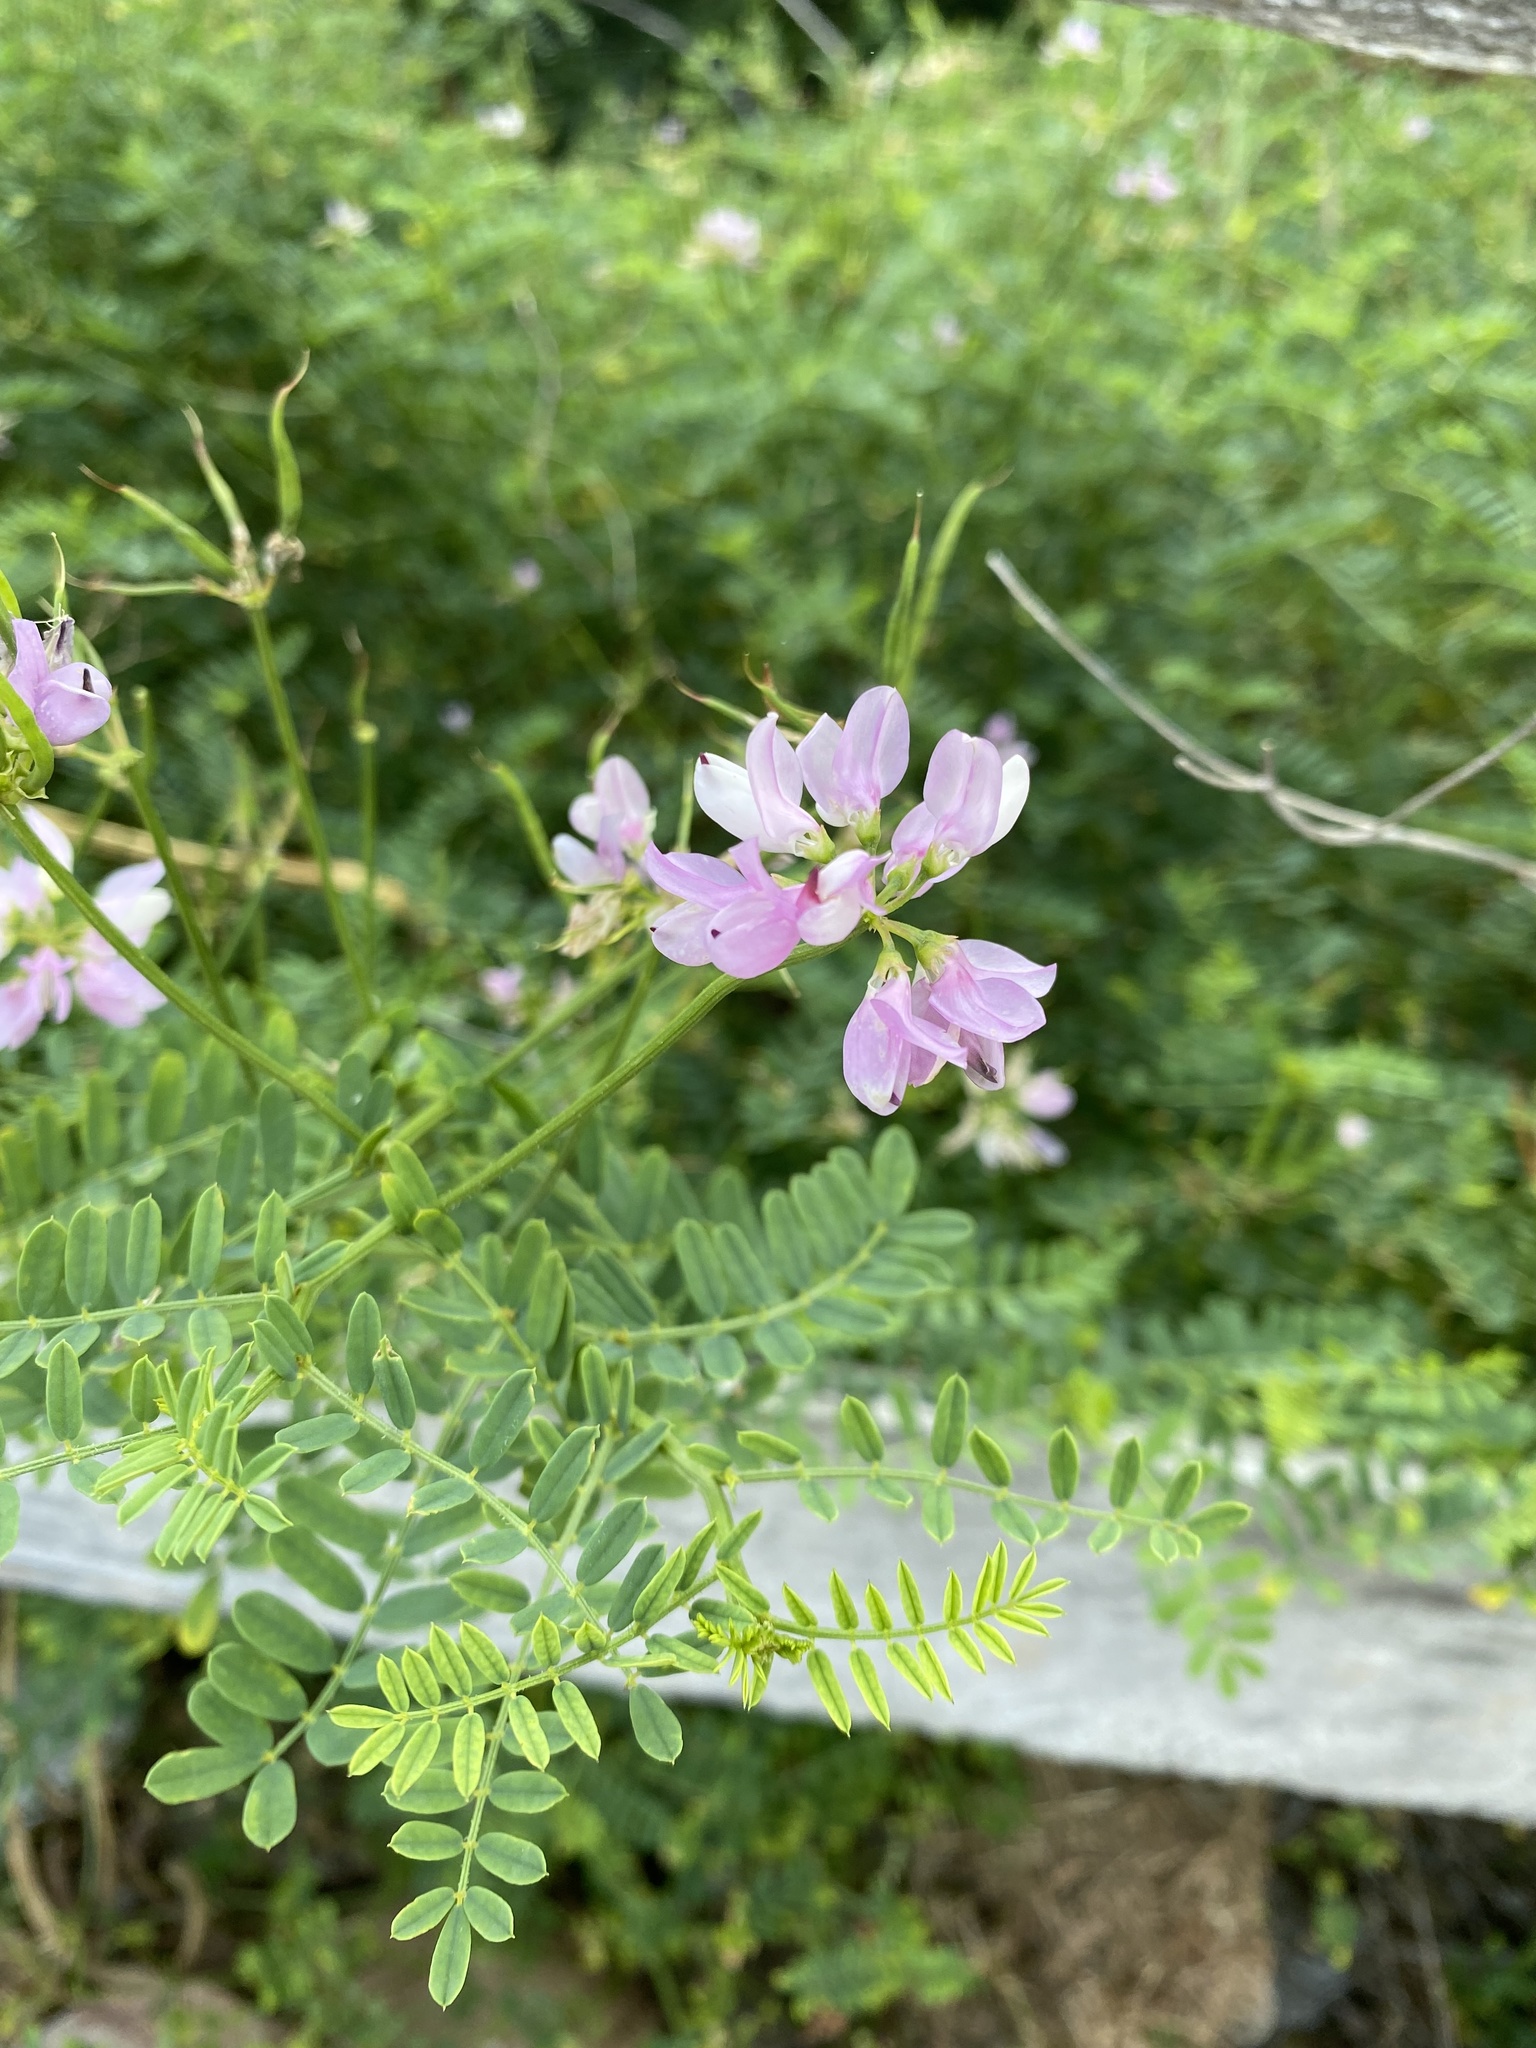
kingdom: Plantae
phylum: Tracheophyta
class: Magnoliopsida
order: Fabales
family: Fabaceae
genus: Coronilla
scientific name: Coronilla varia
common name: Crownvetch
